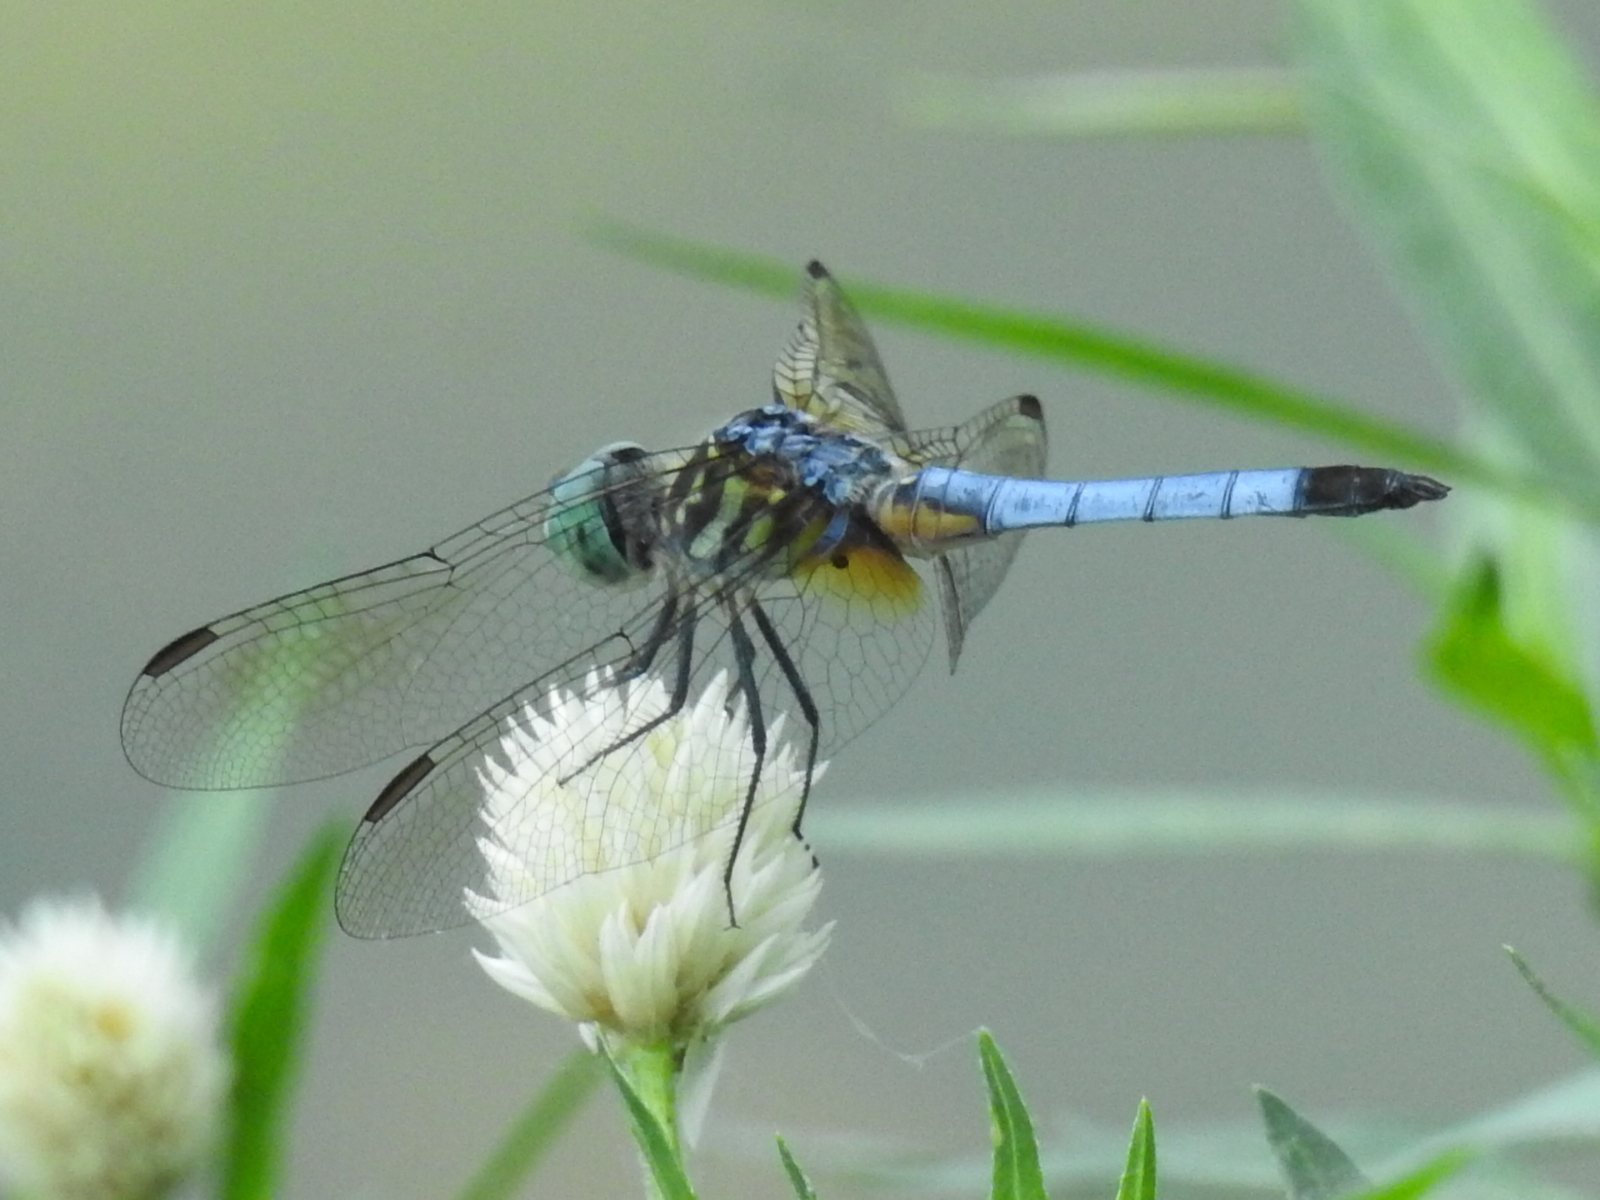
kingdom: Animalia
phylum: Arthropoda
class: Insecta
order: Odonata
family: Libellulidae
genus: Pachydiplax
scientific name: Pachydiplax longipennis
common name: Blue dasher
